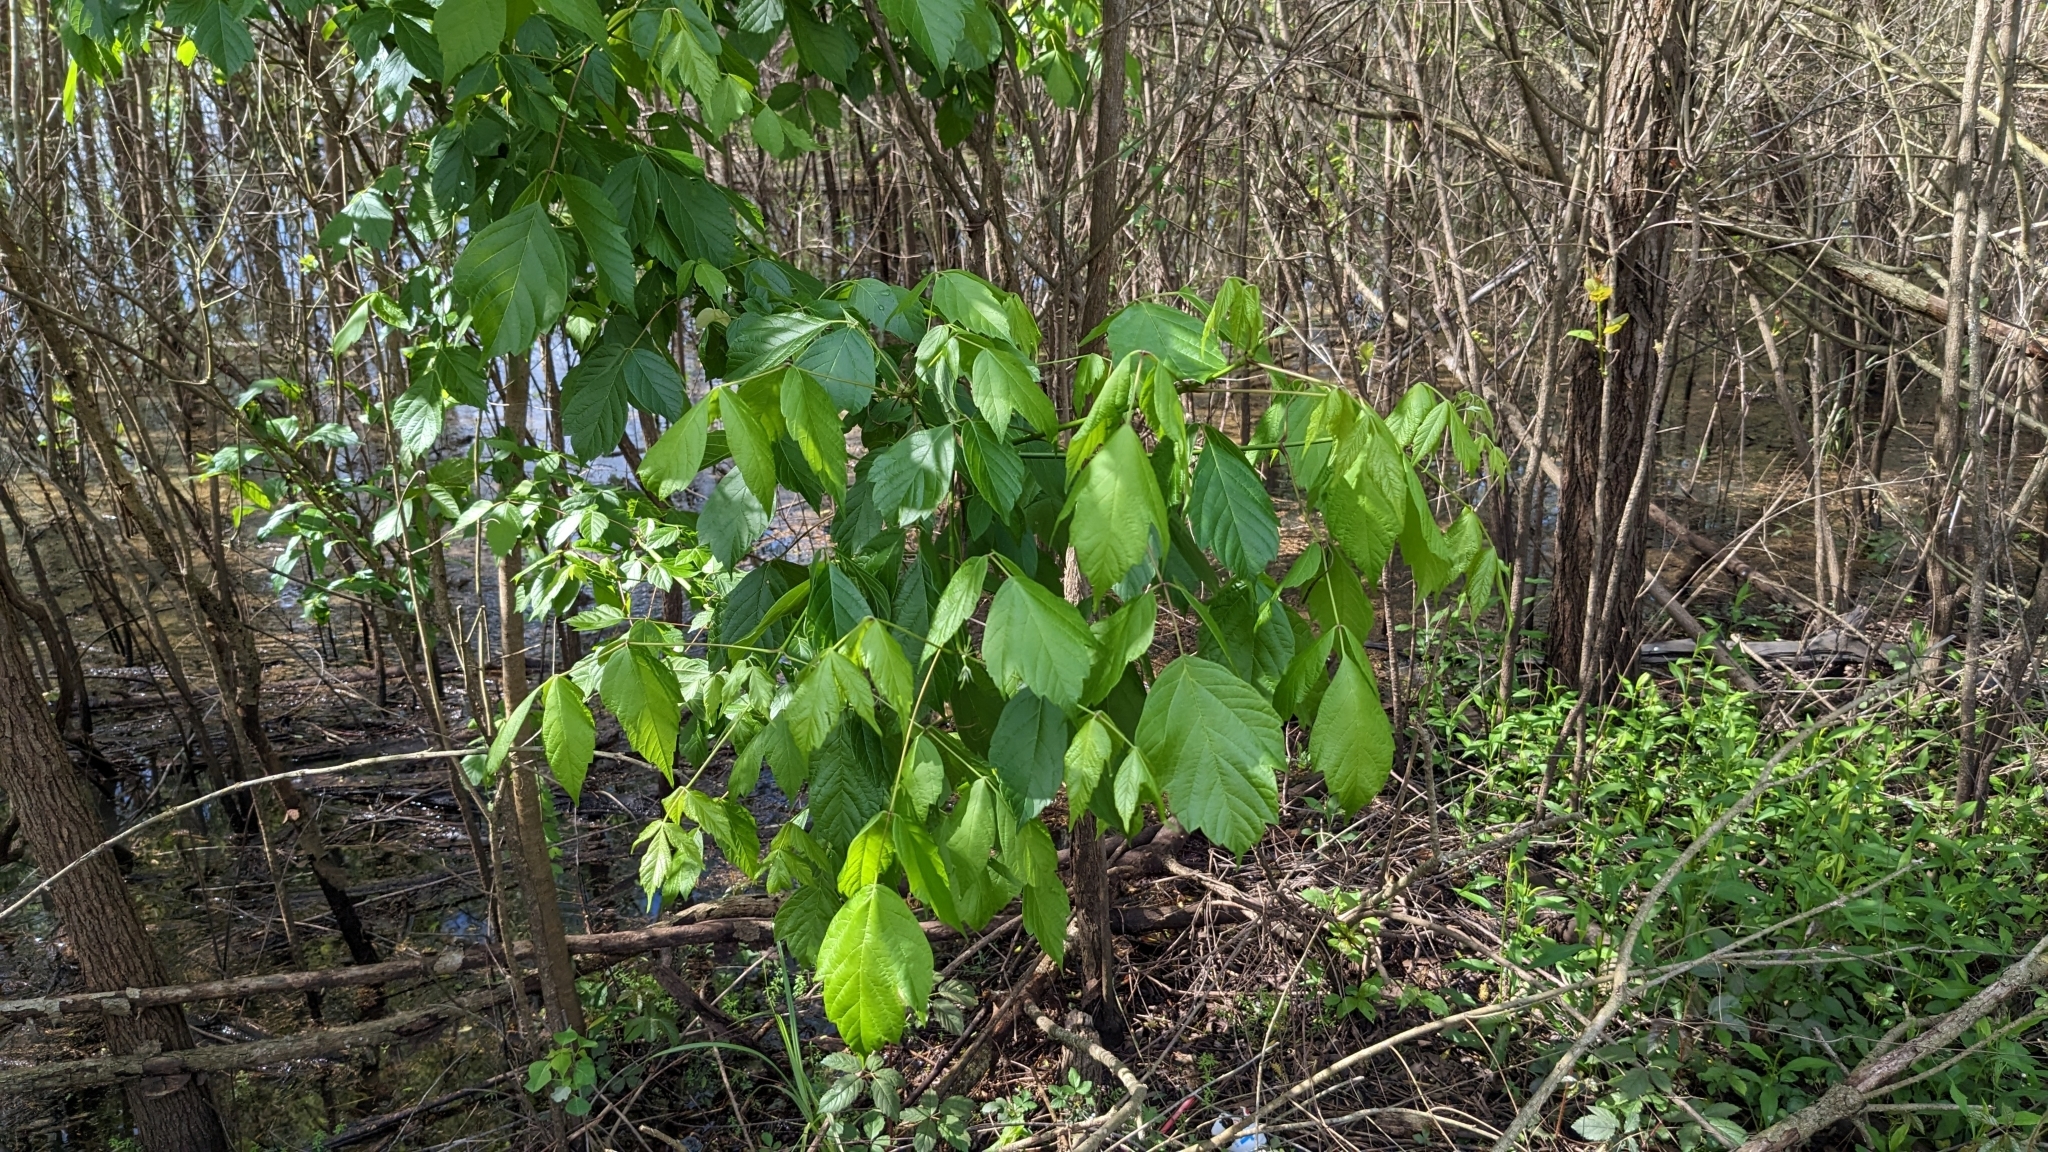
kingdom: Plantae
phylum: Tracheophyta
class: Magnoliopsida
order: Sapindales
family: Sapindaceae
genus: Acer
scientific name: Acer negundo
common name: Ashleaf maple
